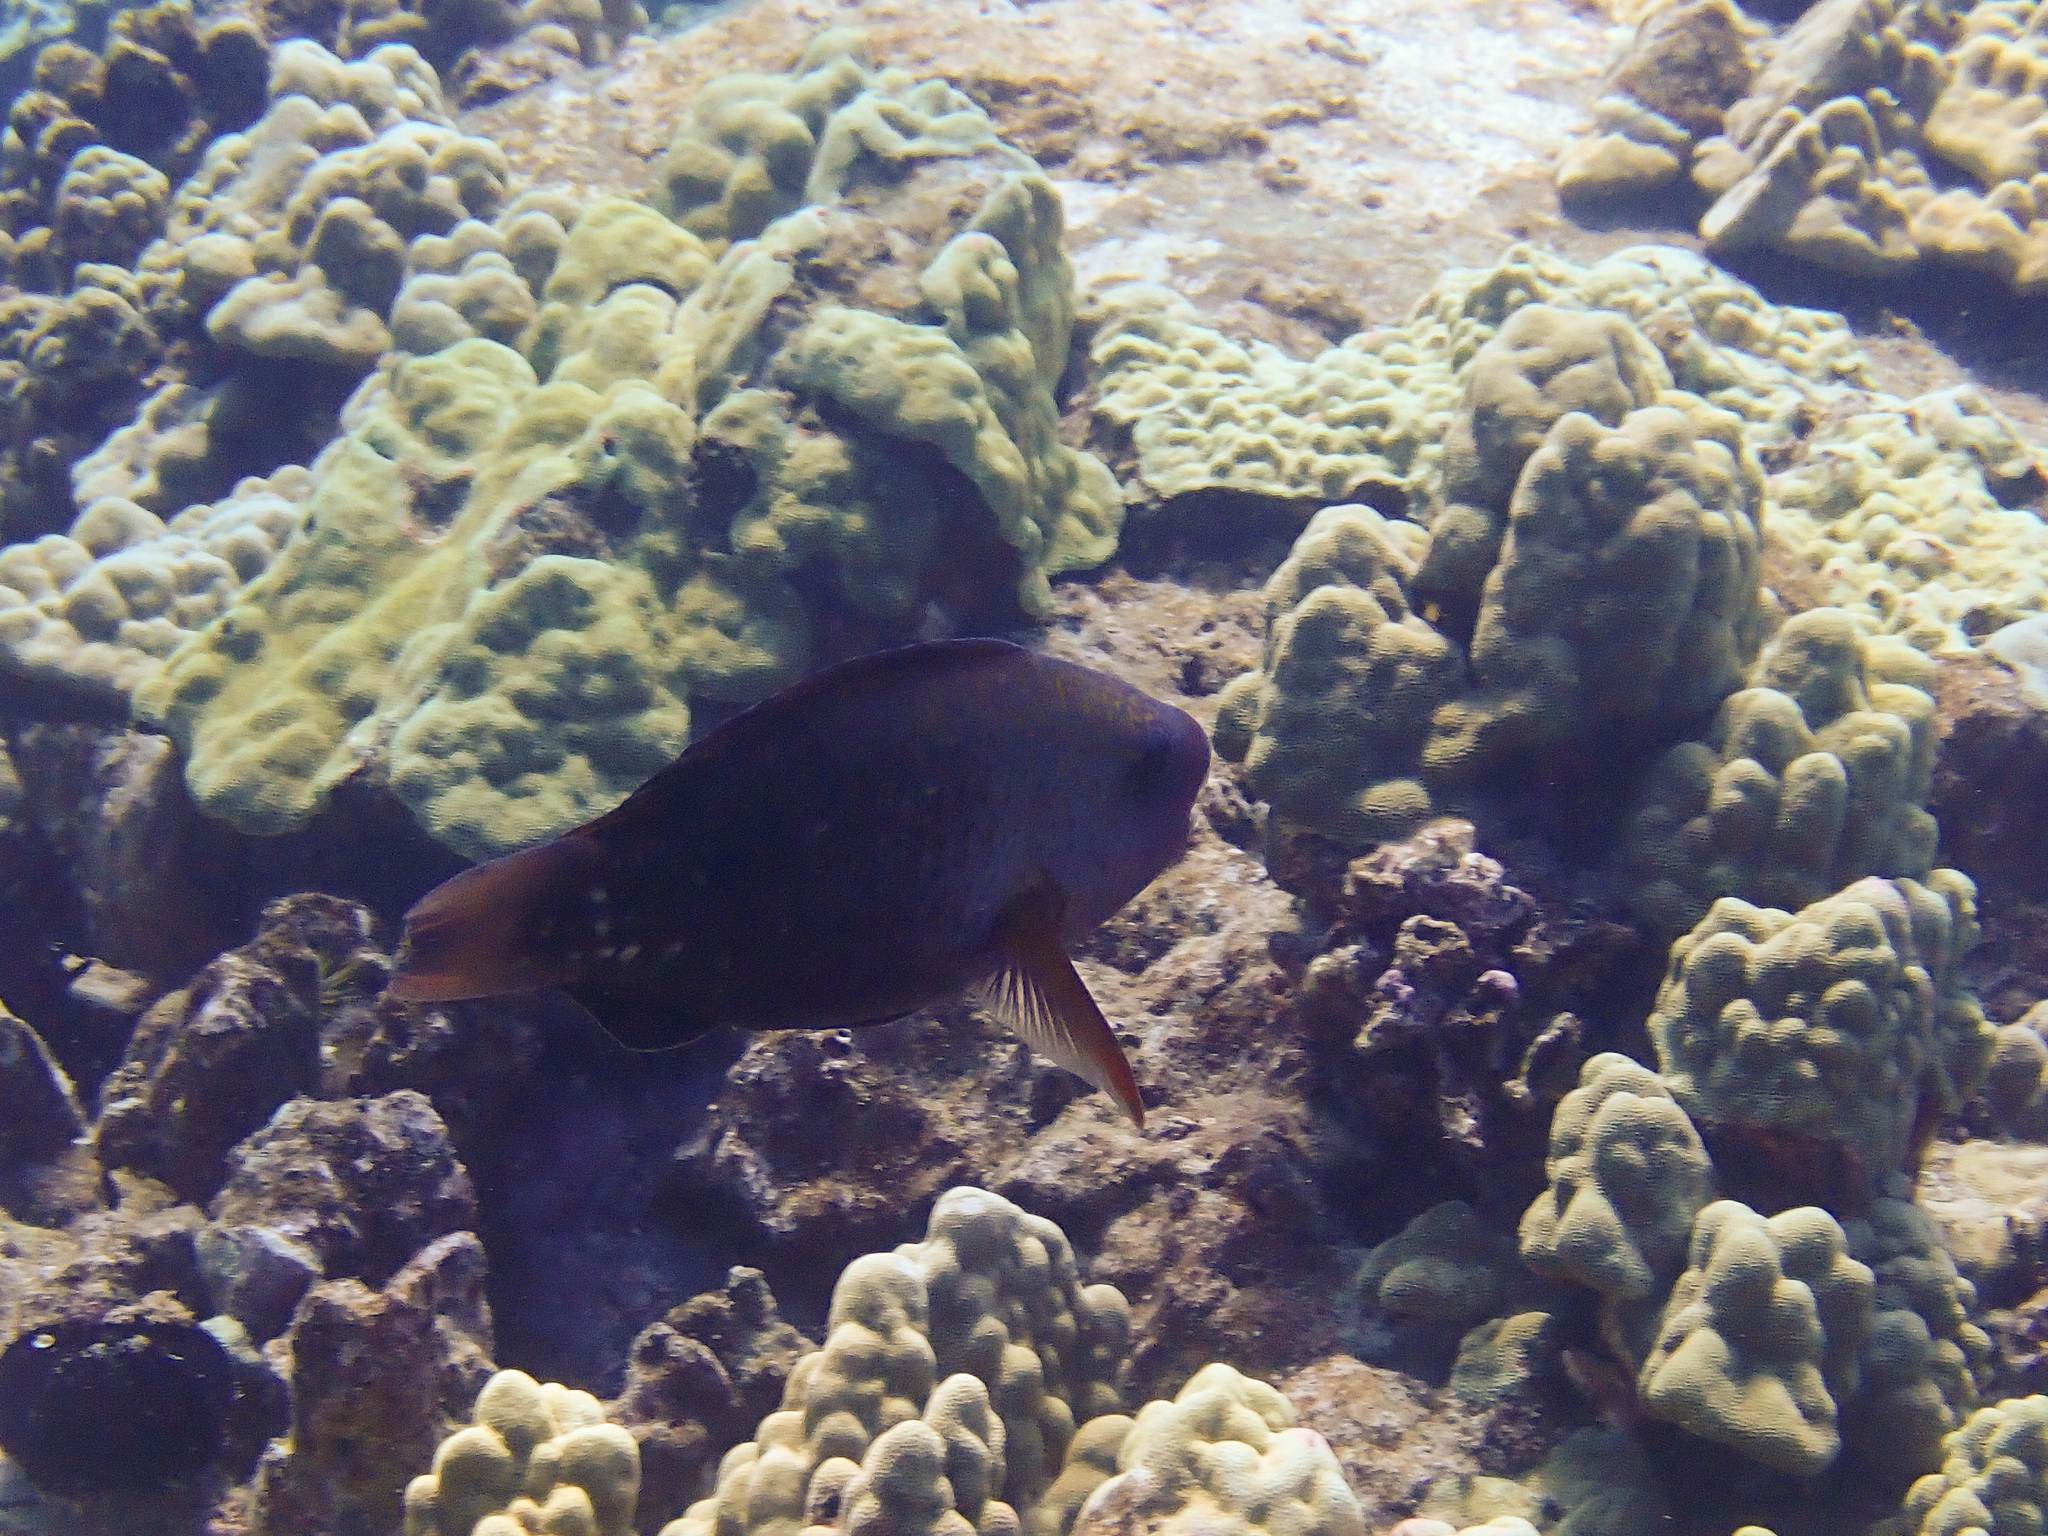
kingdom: Animalia
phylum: Chordata
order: Perciformes
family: Scaridae
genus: Chlorurus
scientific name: Chlorurus spilurus
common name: Bullethead parrotfish
